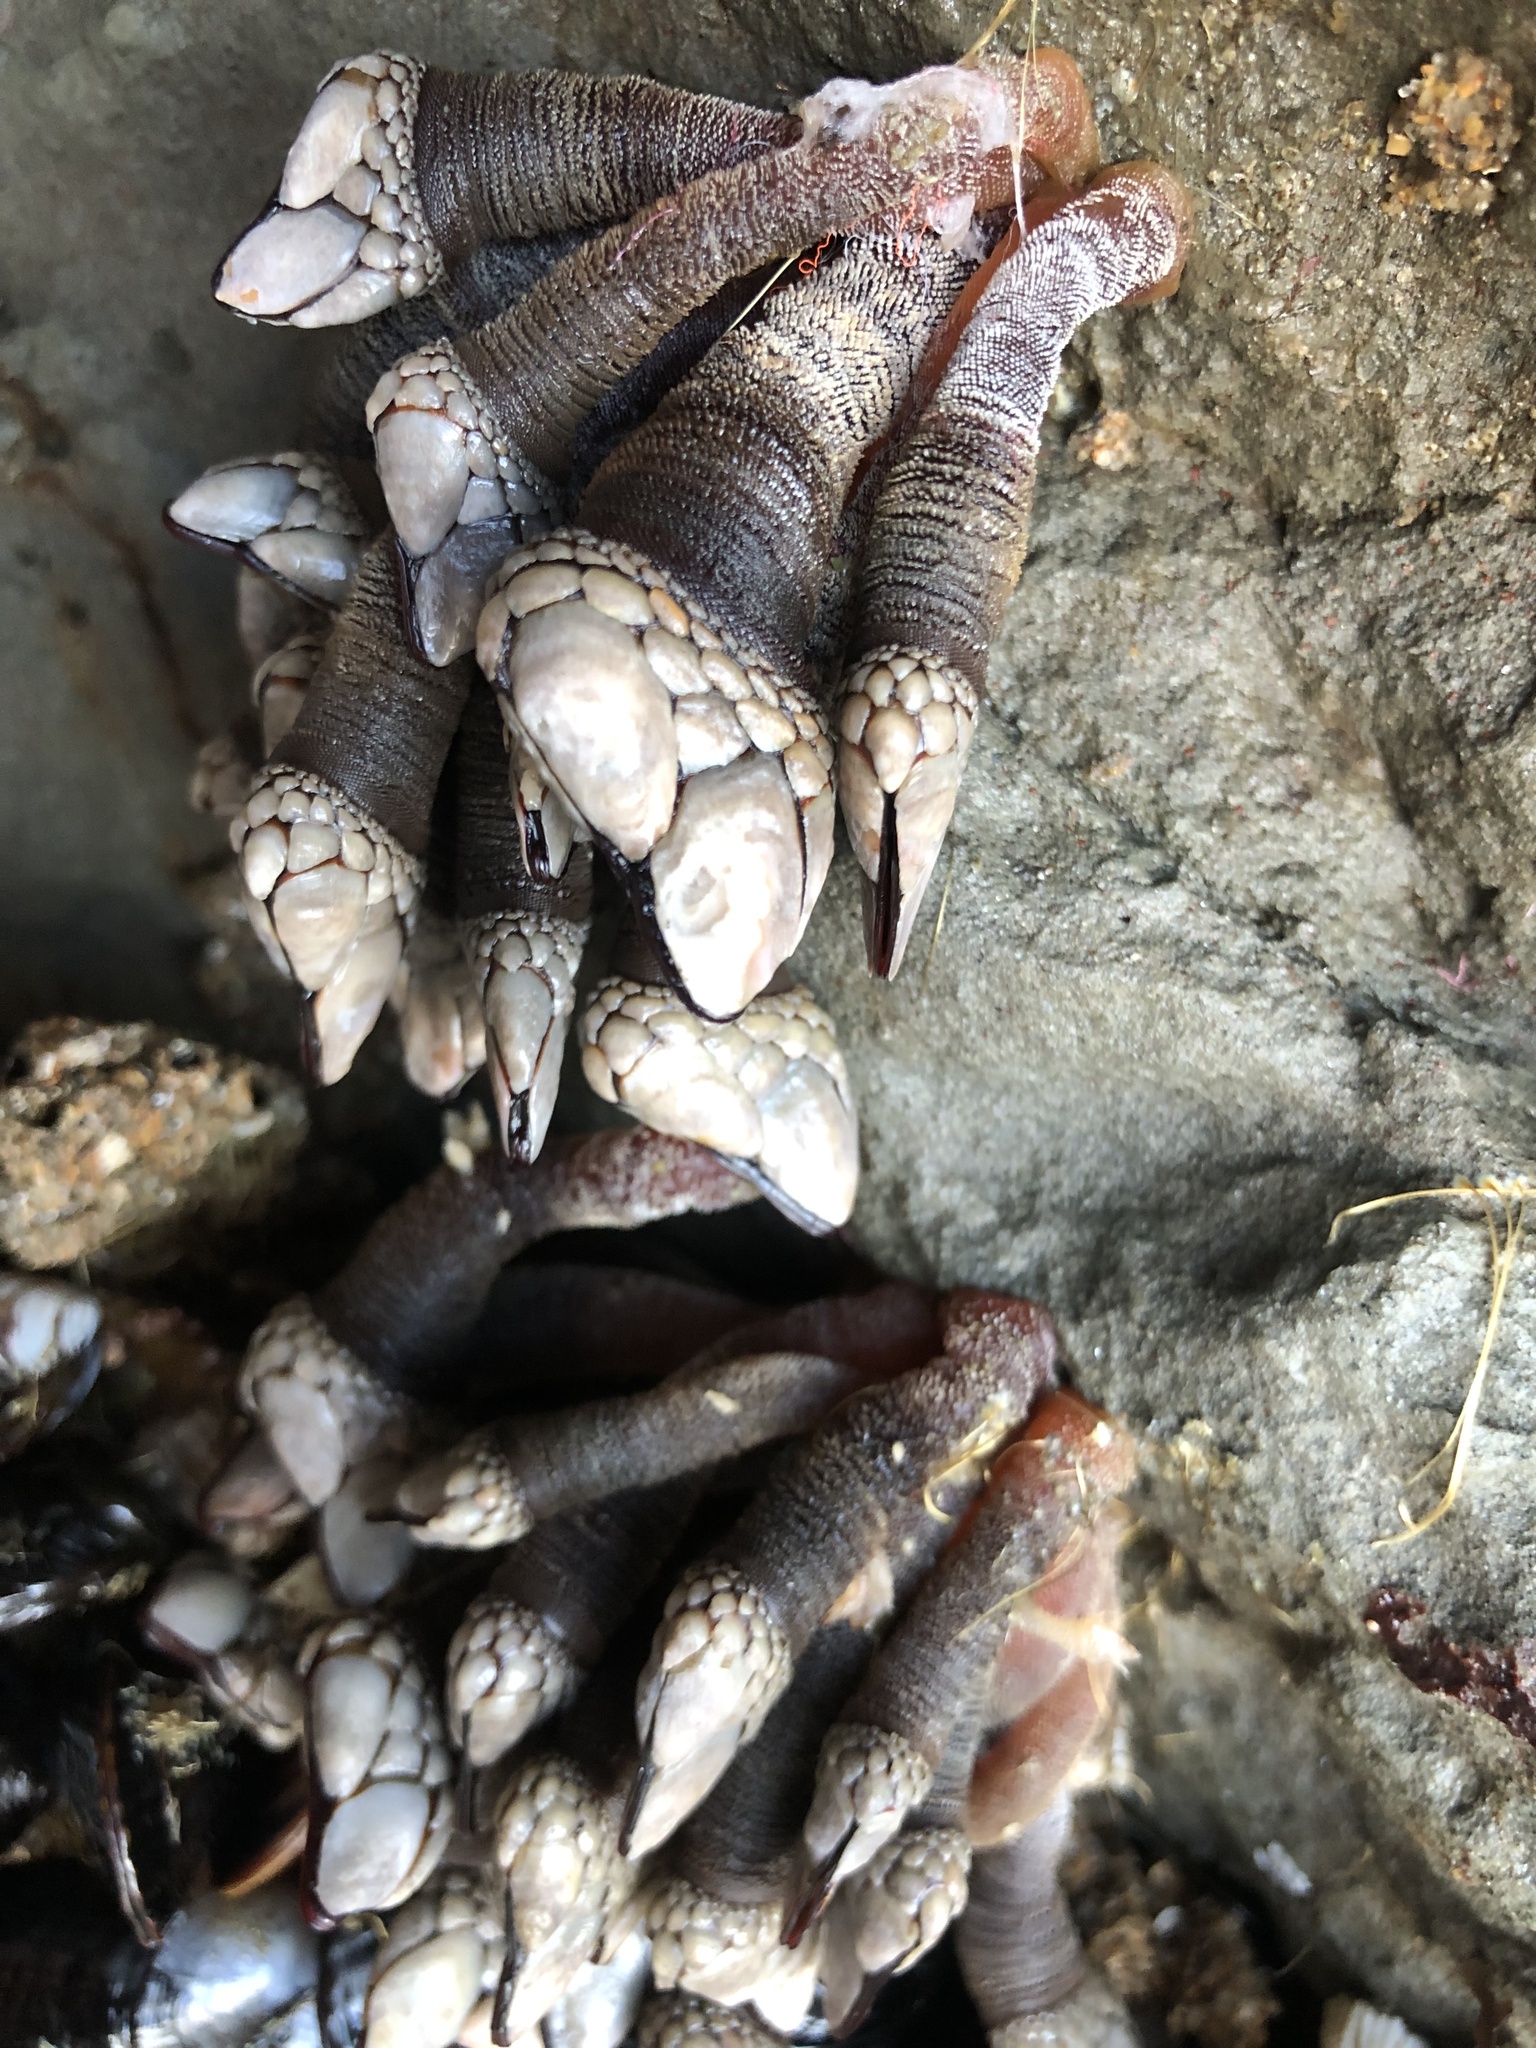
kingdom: Animalia
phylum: Arthropoda
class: Maxillopoda
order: Pedunculata
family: Pollicipedidae
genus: Pollicipes
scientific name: Pollicipes polymerus
